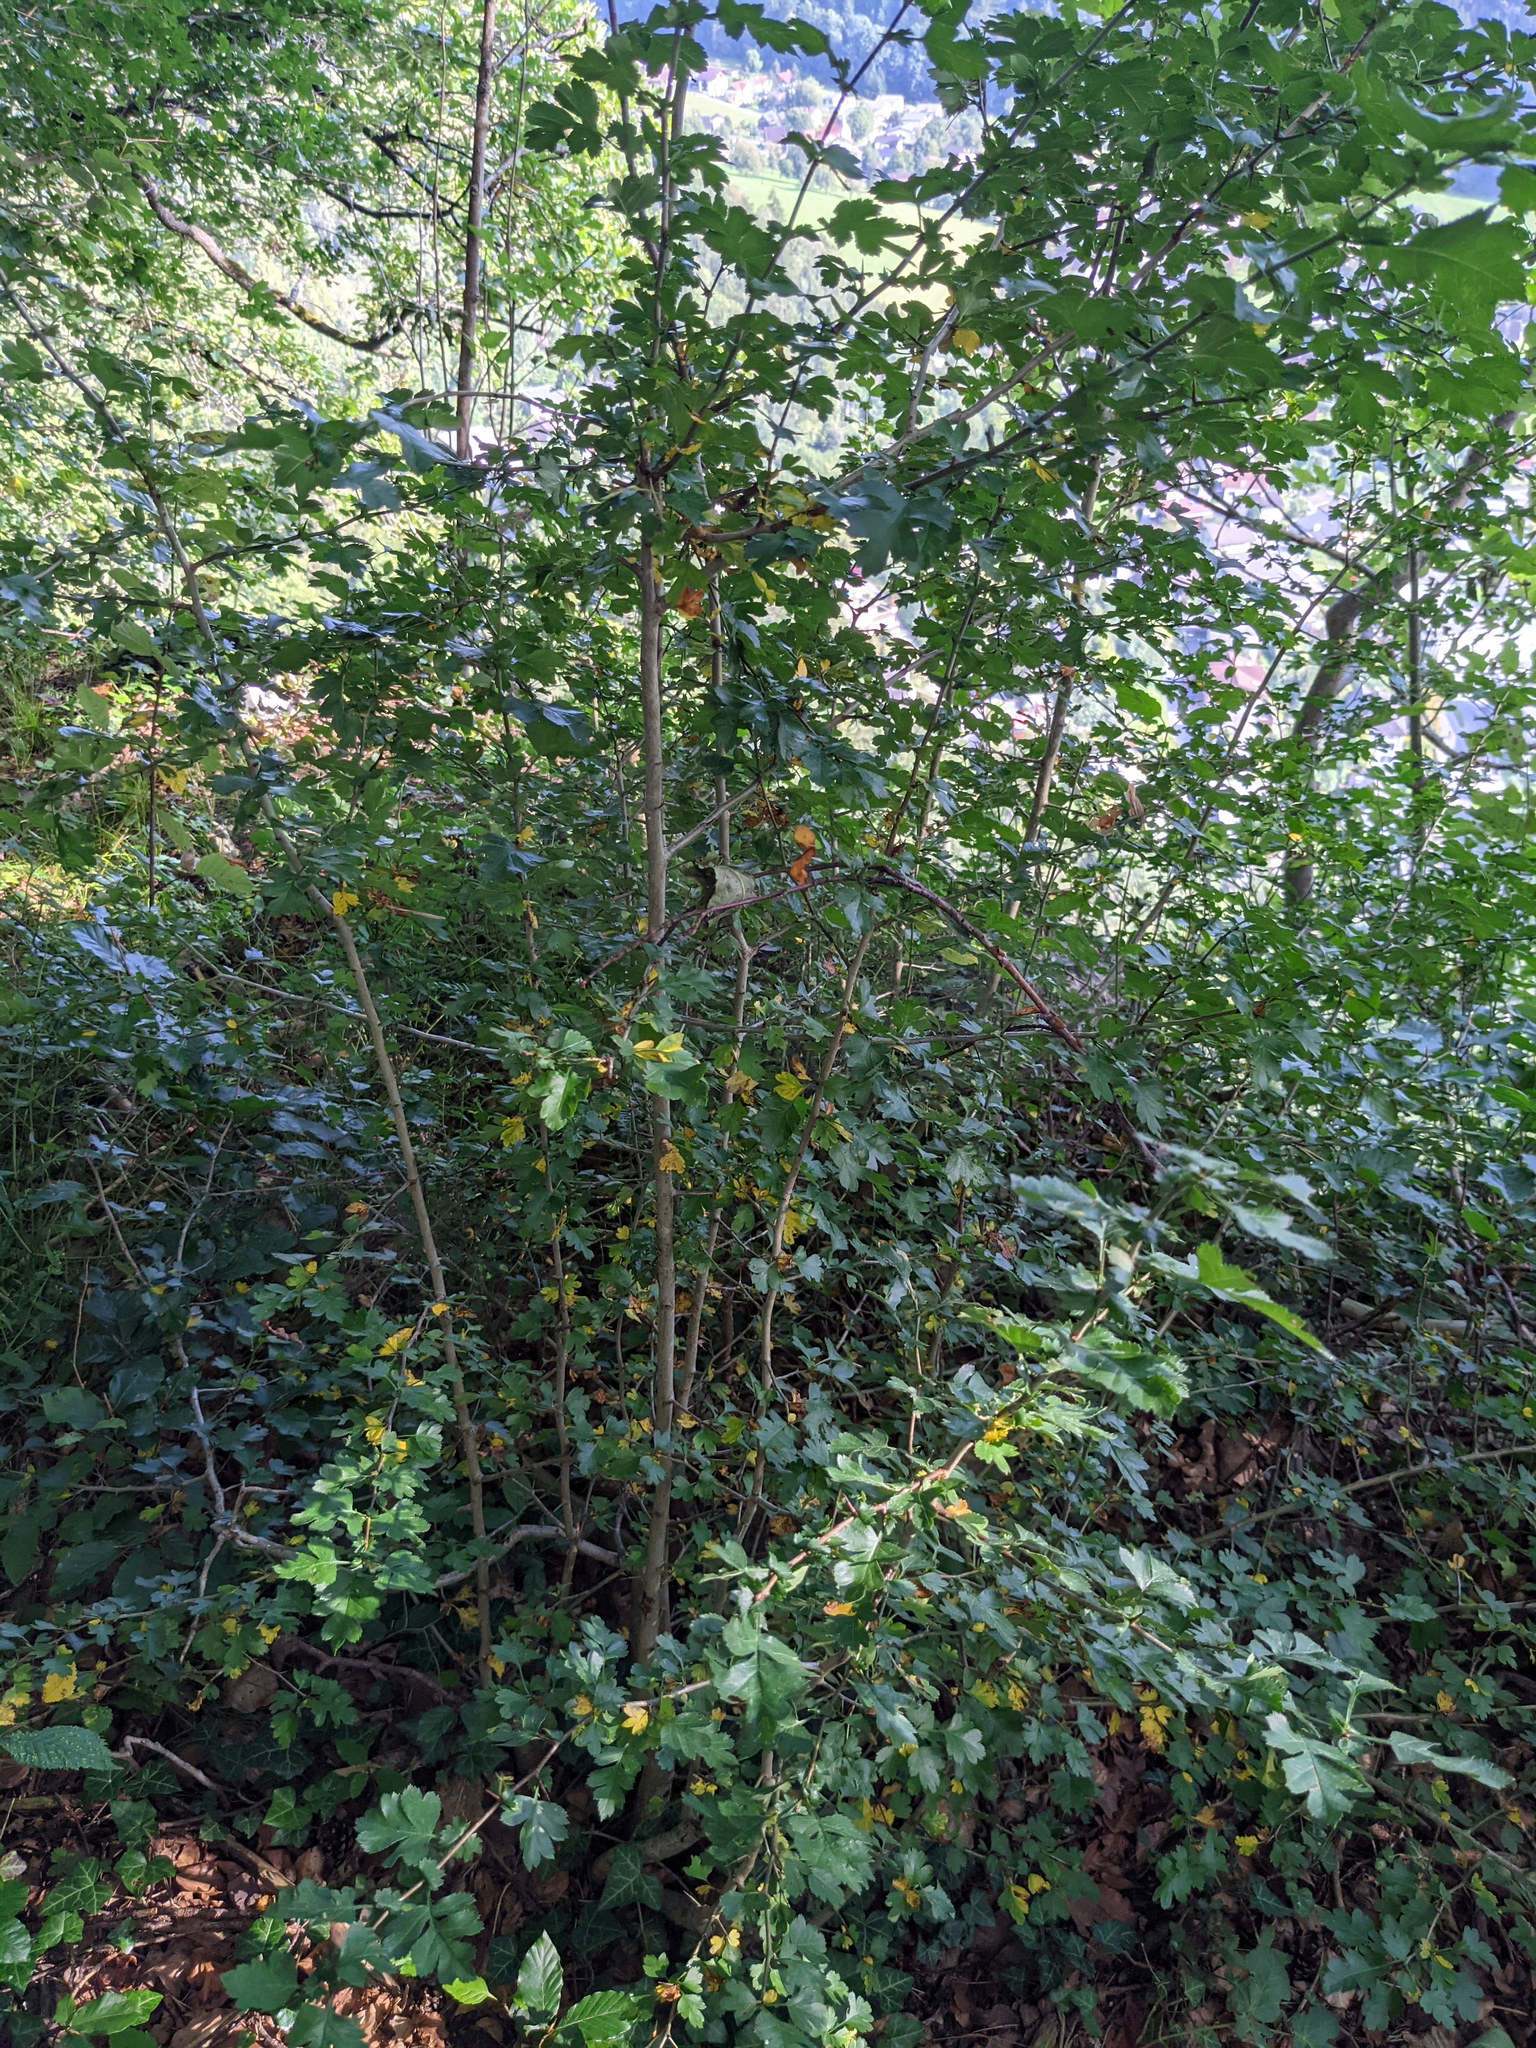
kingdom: Plantae
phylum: Tracheophyta
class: Magnoliopsida
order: Rosales
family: Rosaceae
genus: Crataegus
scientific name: Crataegus monogyna
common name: Hawthorn
